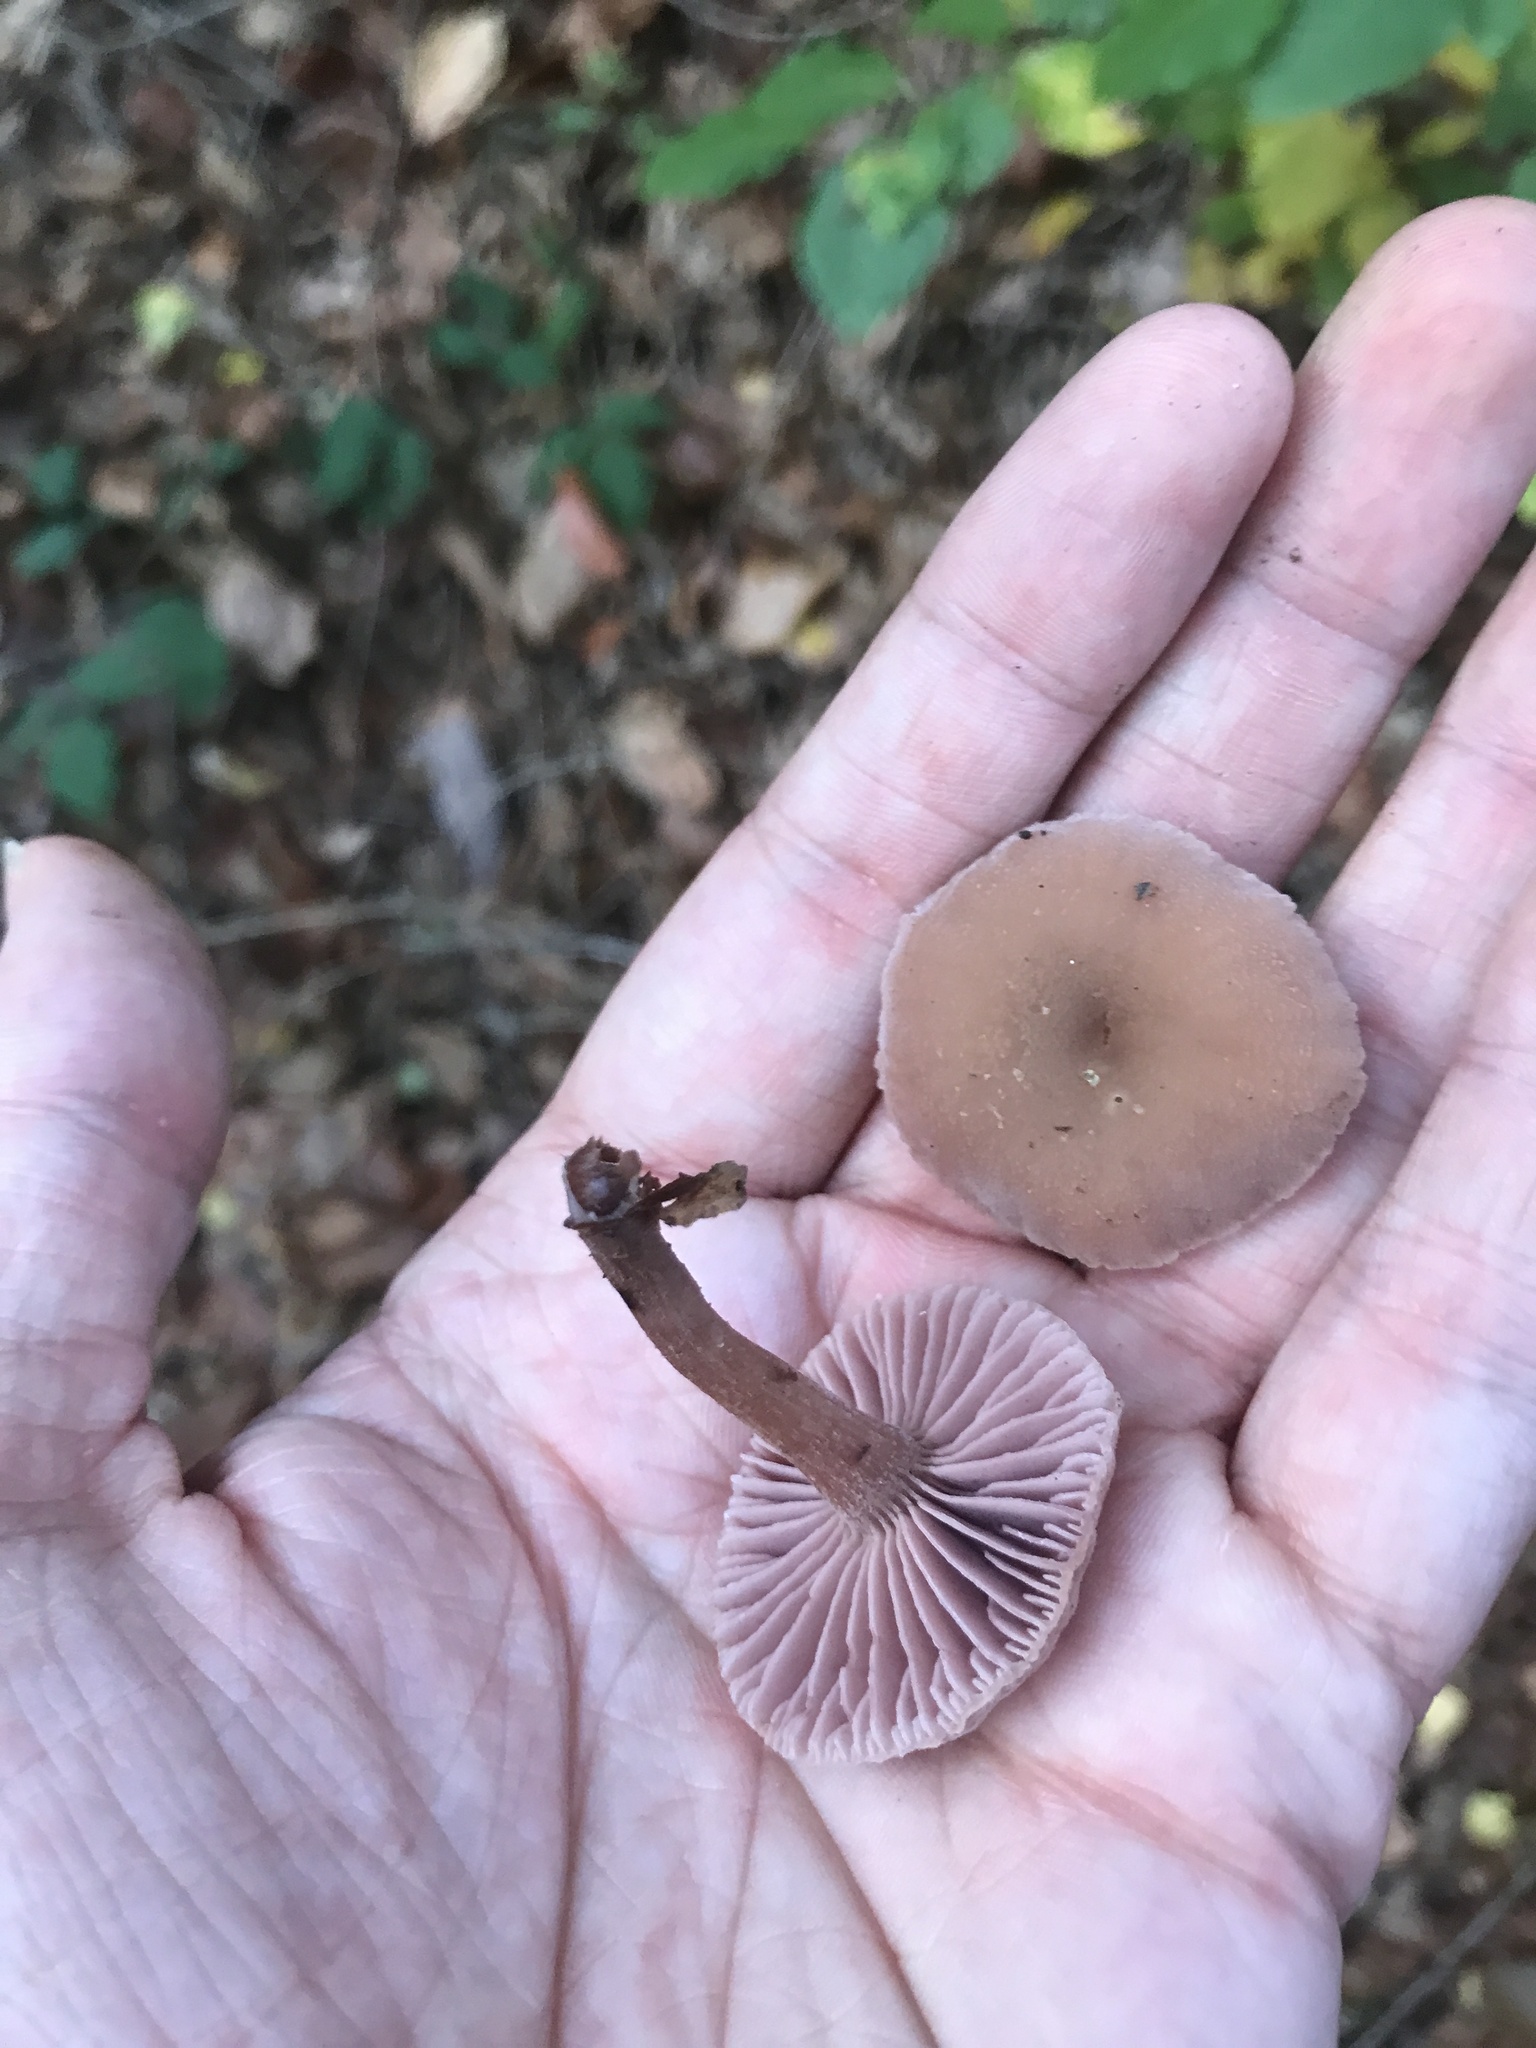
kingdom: Fungi
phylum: Basidiomycota
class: Agaricomycetes
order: Agaricales
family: Hydnangiaceae
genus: Laccaria
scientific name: Laccaria amethystina
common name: Amethyst deceiver
